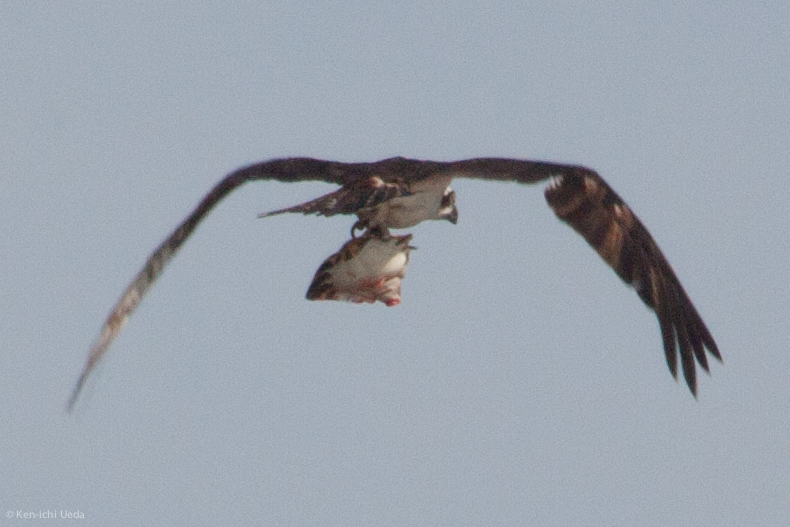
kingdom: Animalia
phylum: Chordata
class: Aves
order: Accipitriformes
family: Pandionidae
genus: Pandion
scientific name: Pandion haliaetus
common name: Osprey
